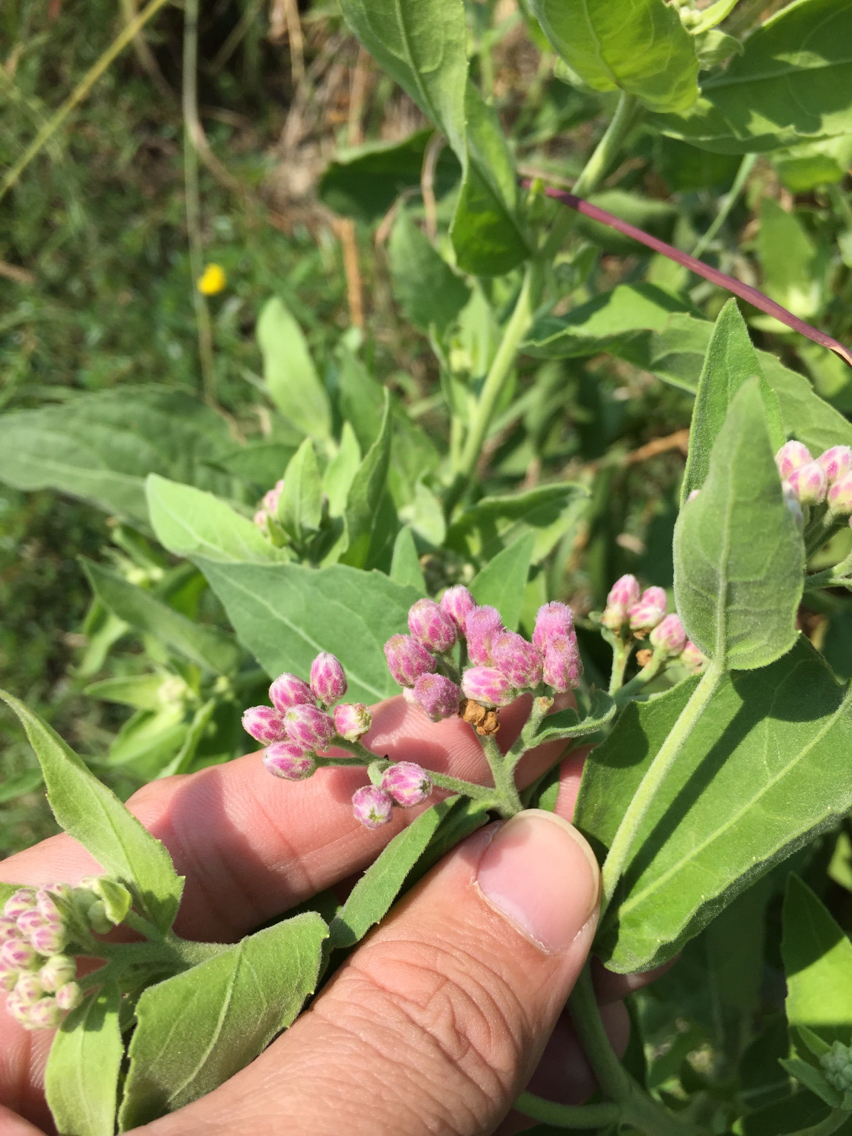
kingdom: Plantae
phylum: Tracheophyta
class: Magnoliopsida
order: Asterales
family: Asteraceae
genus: Pluchea
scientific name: Pluchea odorata
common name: Saltmarsh fleabane
